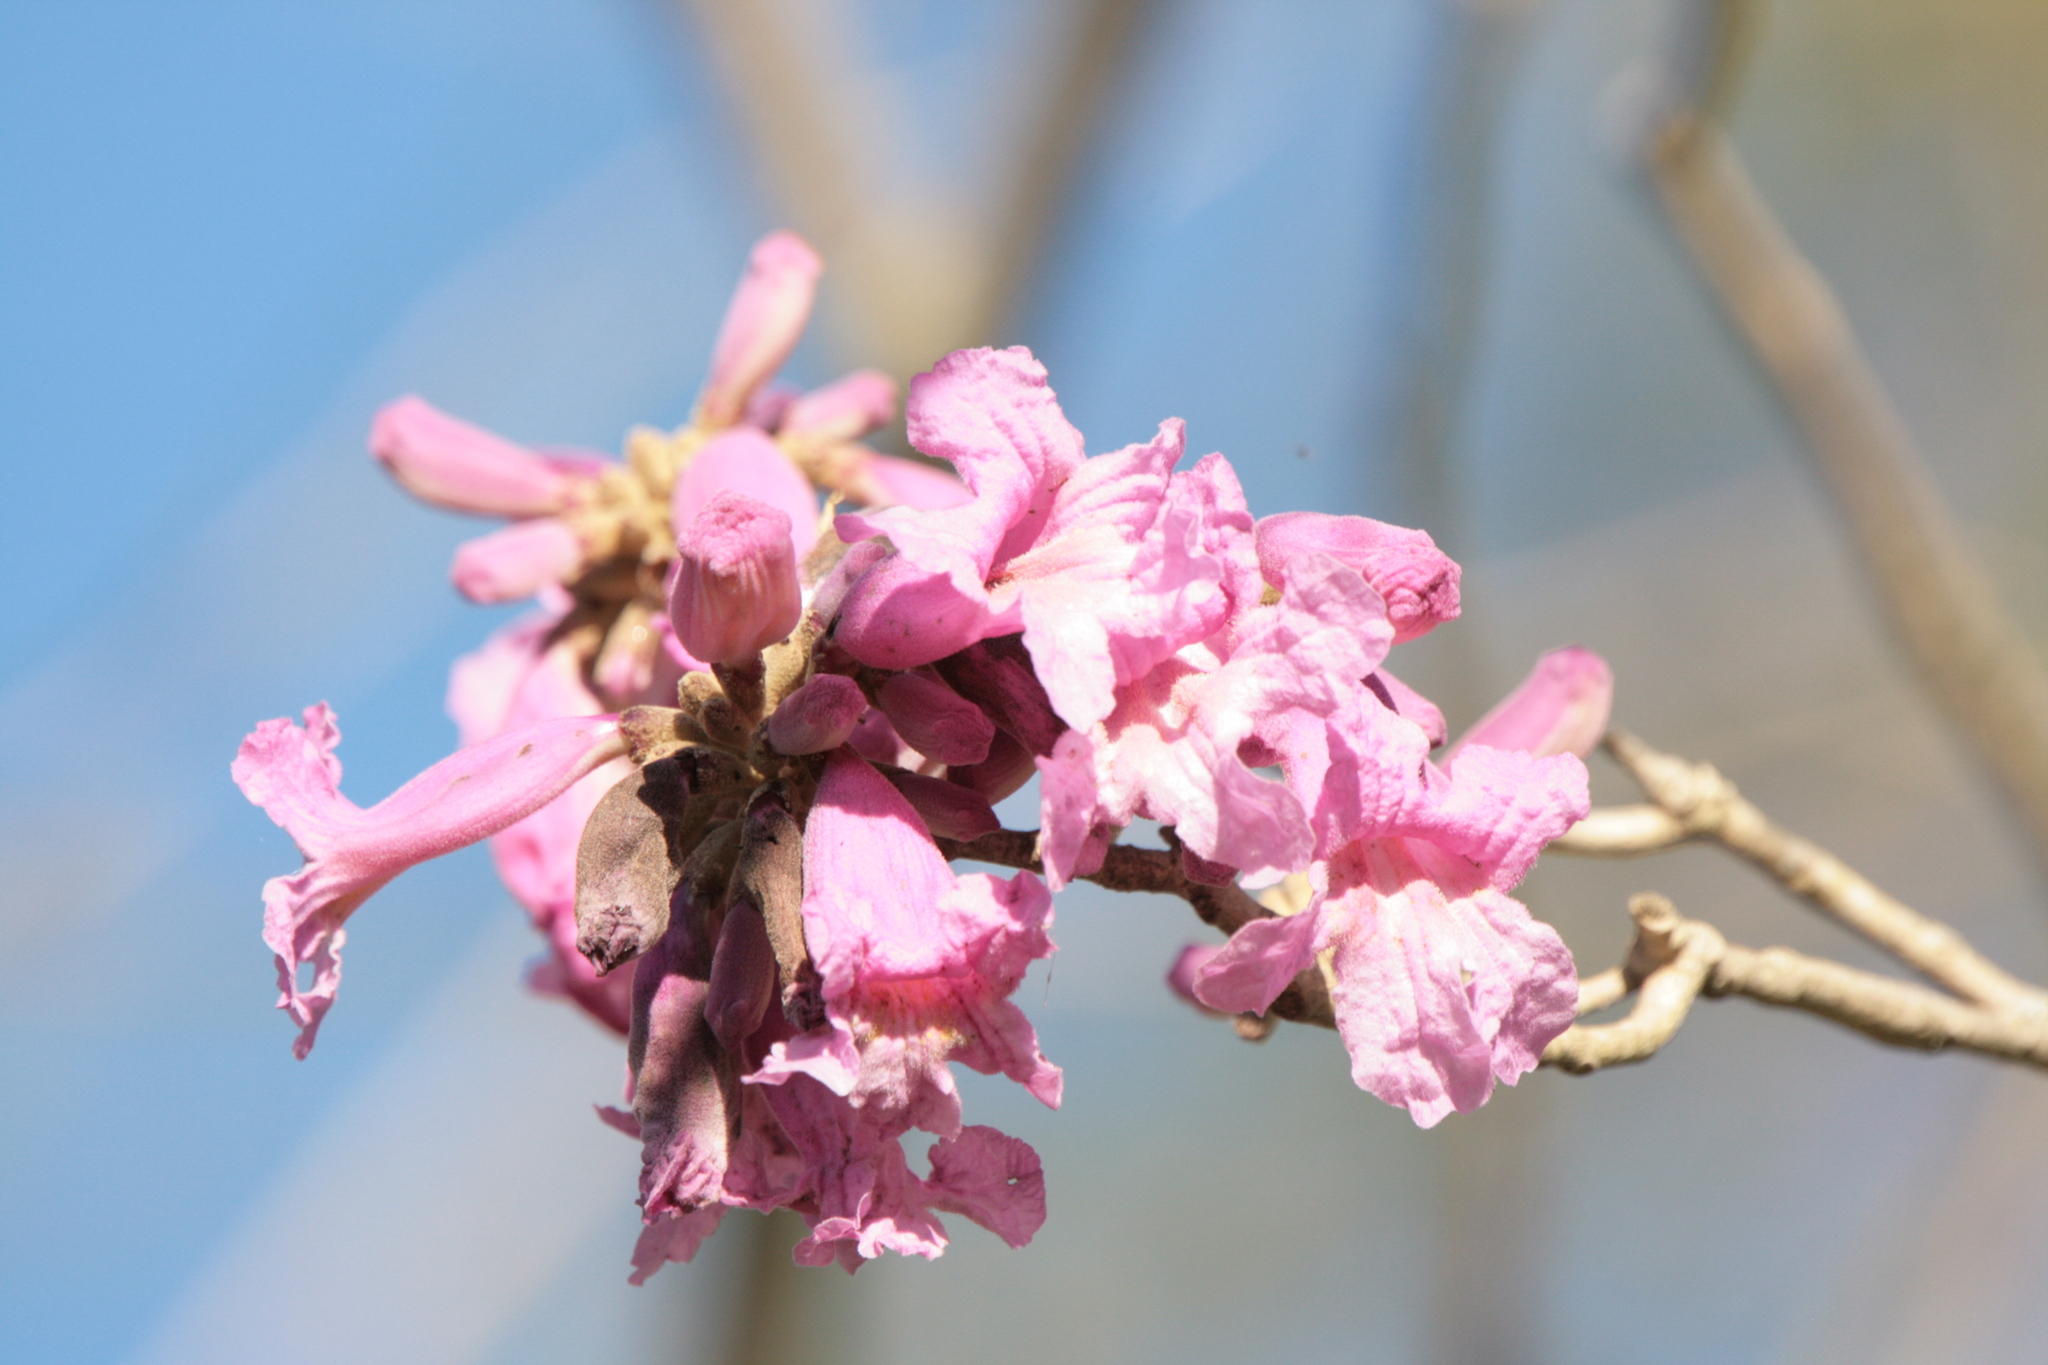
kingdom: Plantae
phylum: Tracheophyta
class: Magnoliopsida
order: Lamiales
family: Bignoniaceae
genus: Handroanthus
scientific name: Handroanthus heptaphyllus
